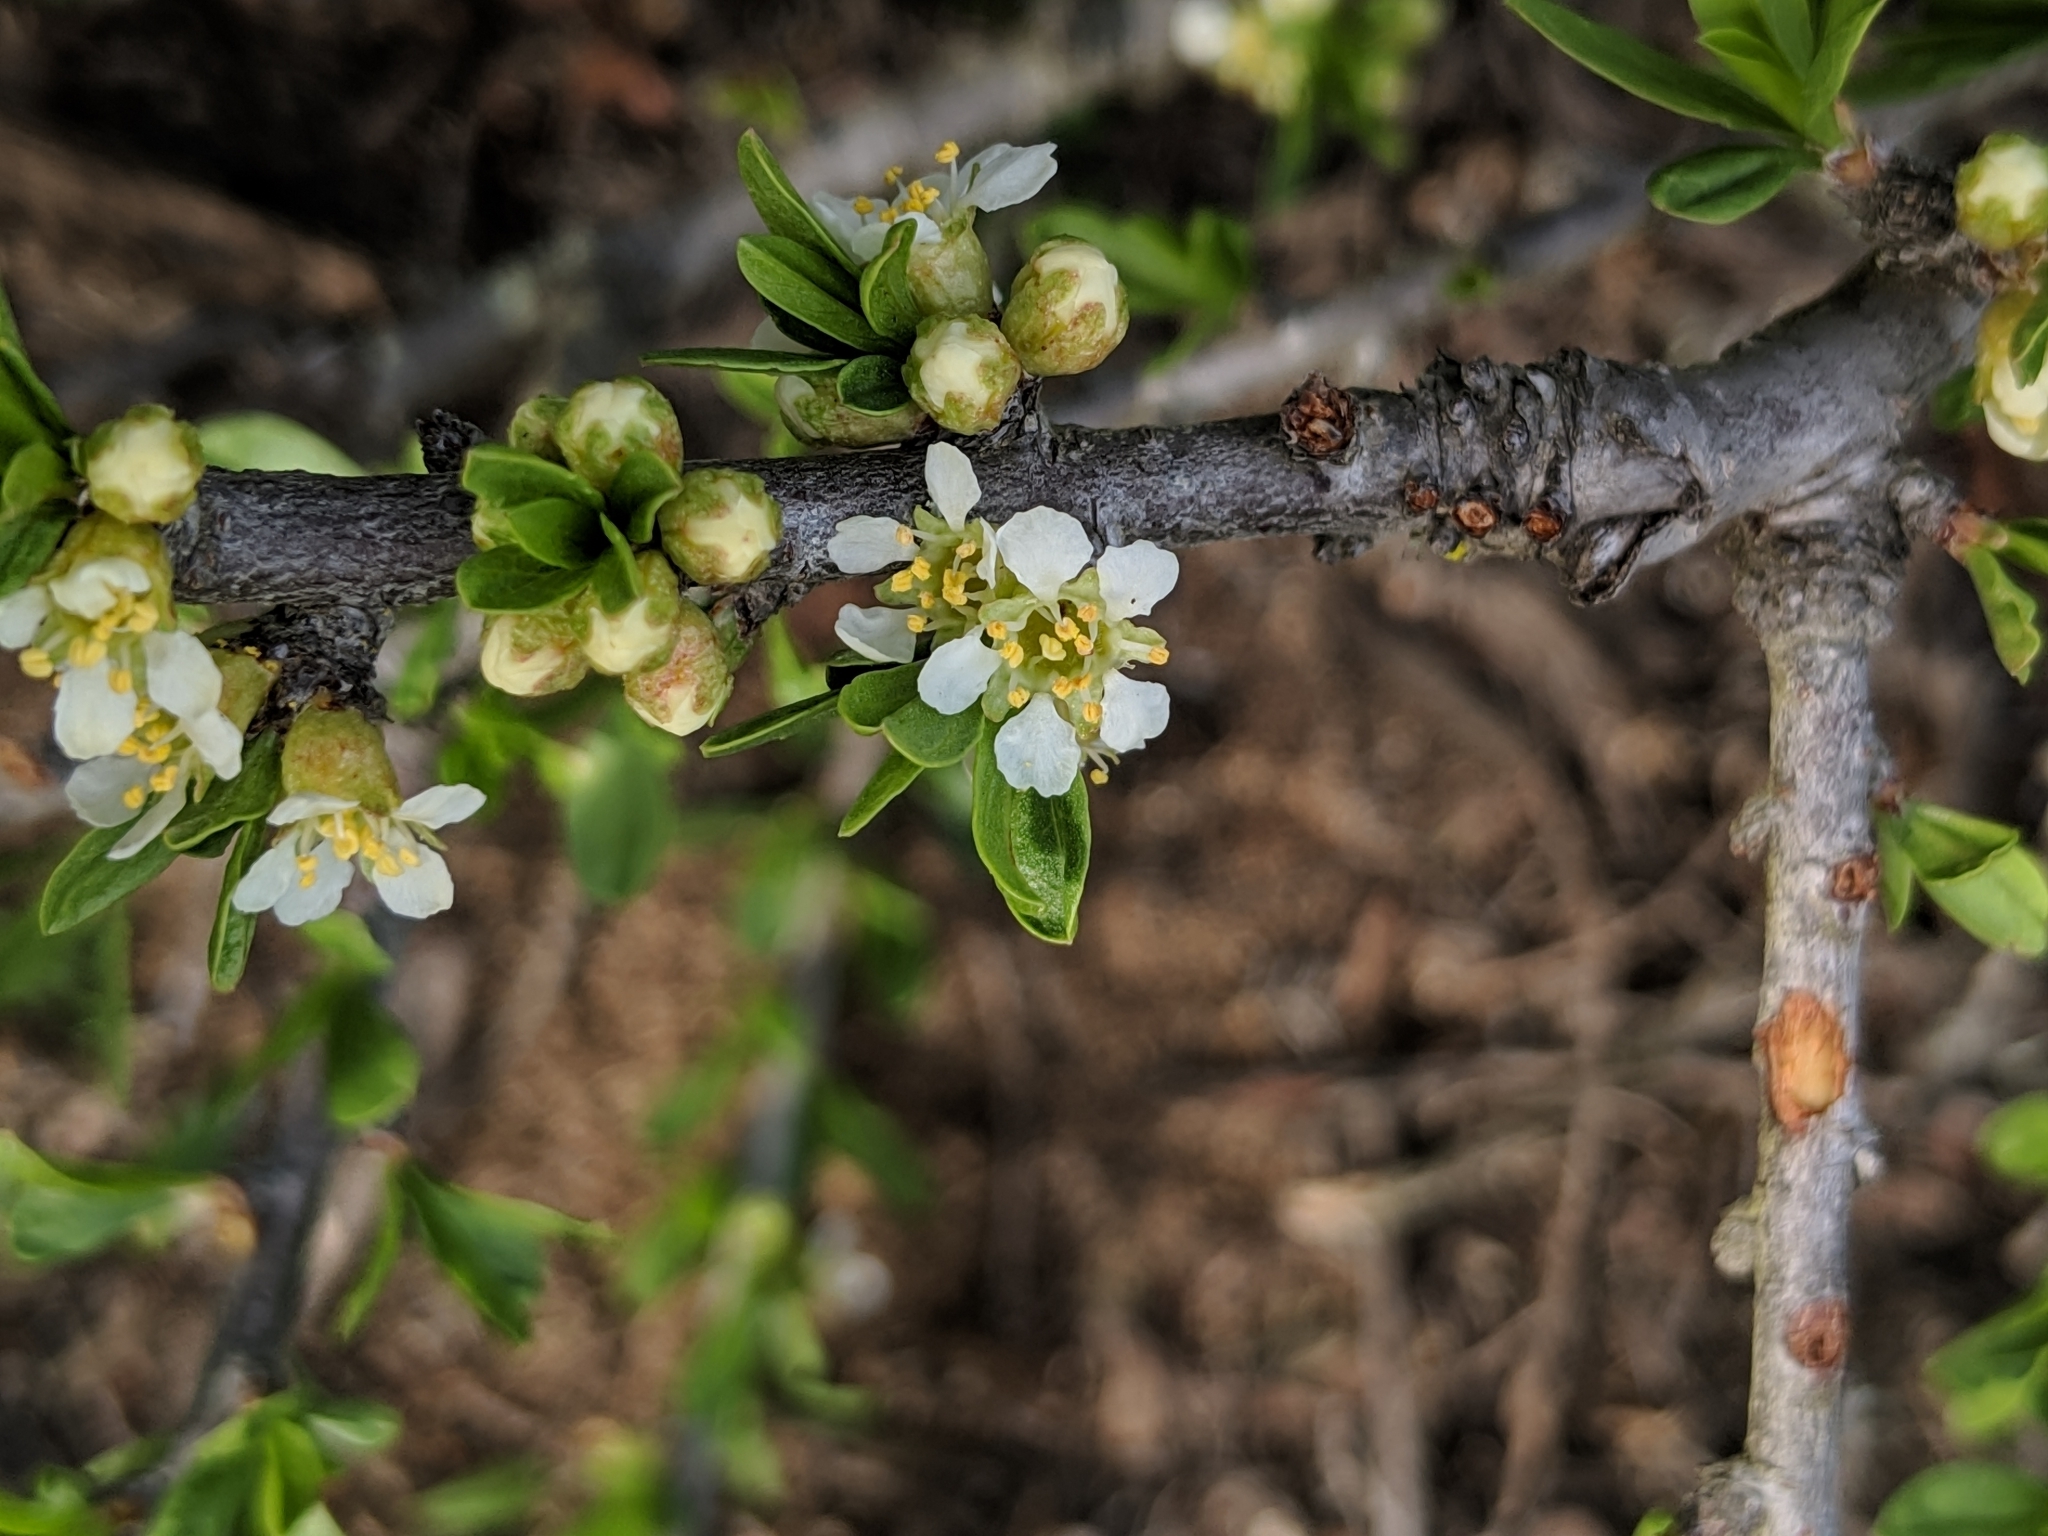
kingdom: Plantae
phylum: Tracheophyta
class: Magnoliopsida
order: Rosales
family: Rosaceae
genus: Prunus
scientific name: Prunus fasciculata
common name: Desert almond
